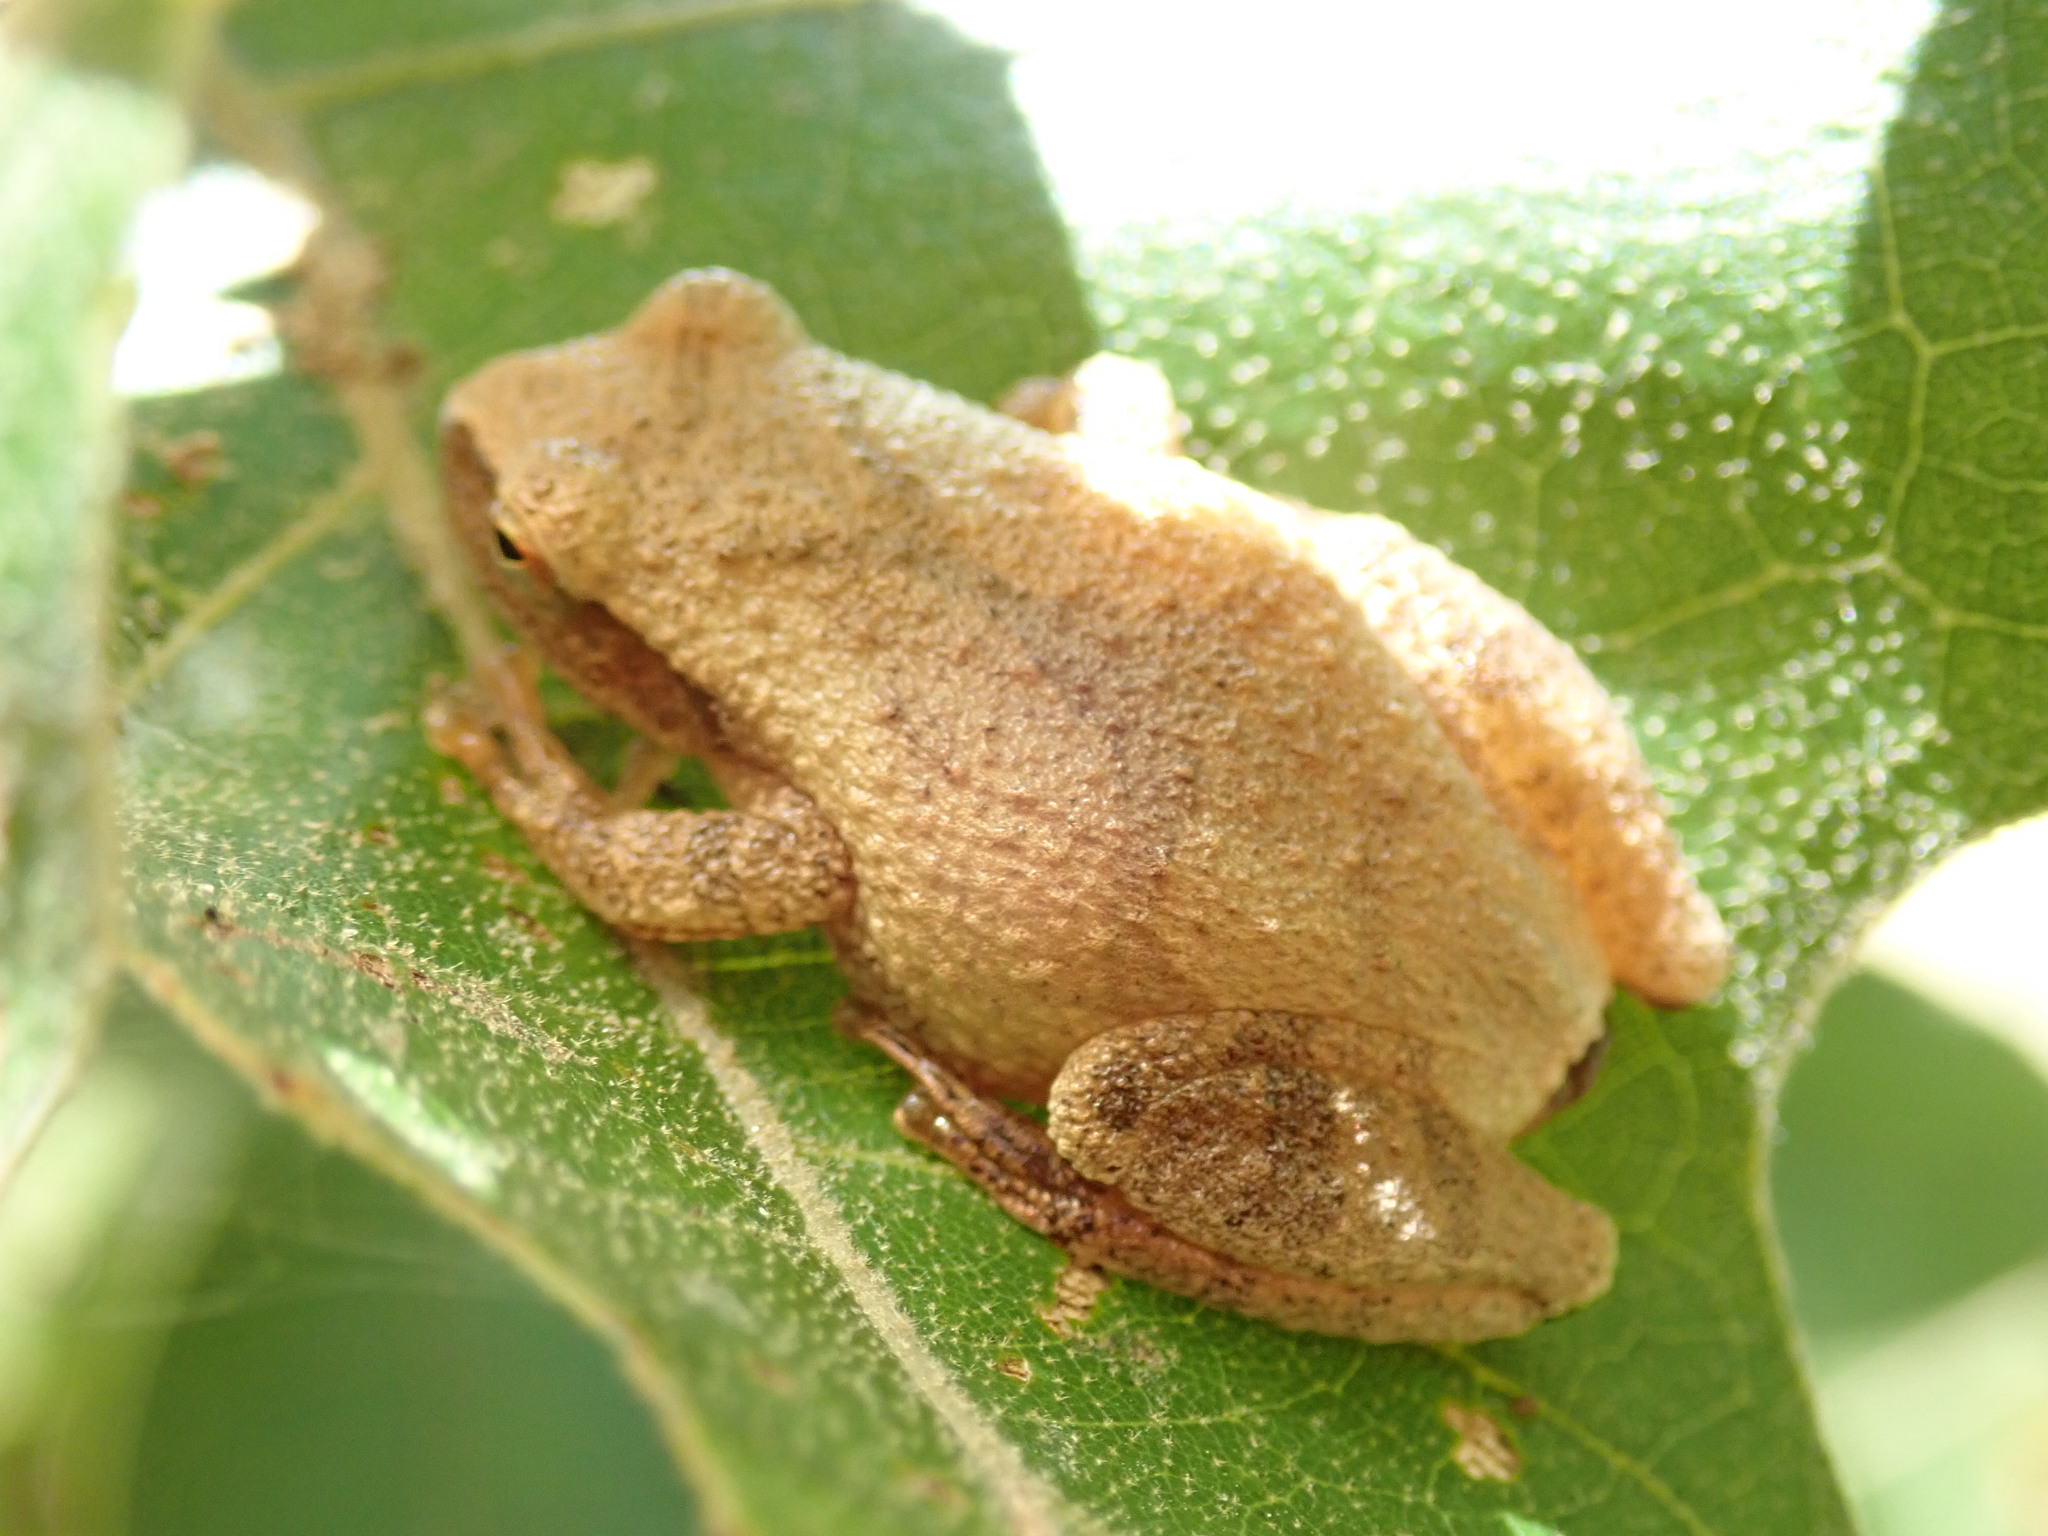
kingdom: Animalia
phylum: Chordata
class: Amphibia
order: Anura
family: Hylidae
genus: Pseudacris
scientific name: Pseudacris crucifer
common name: Spring peeper
